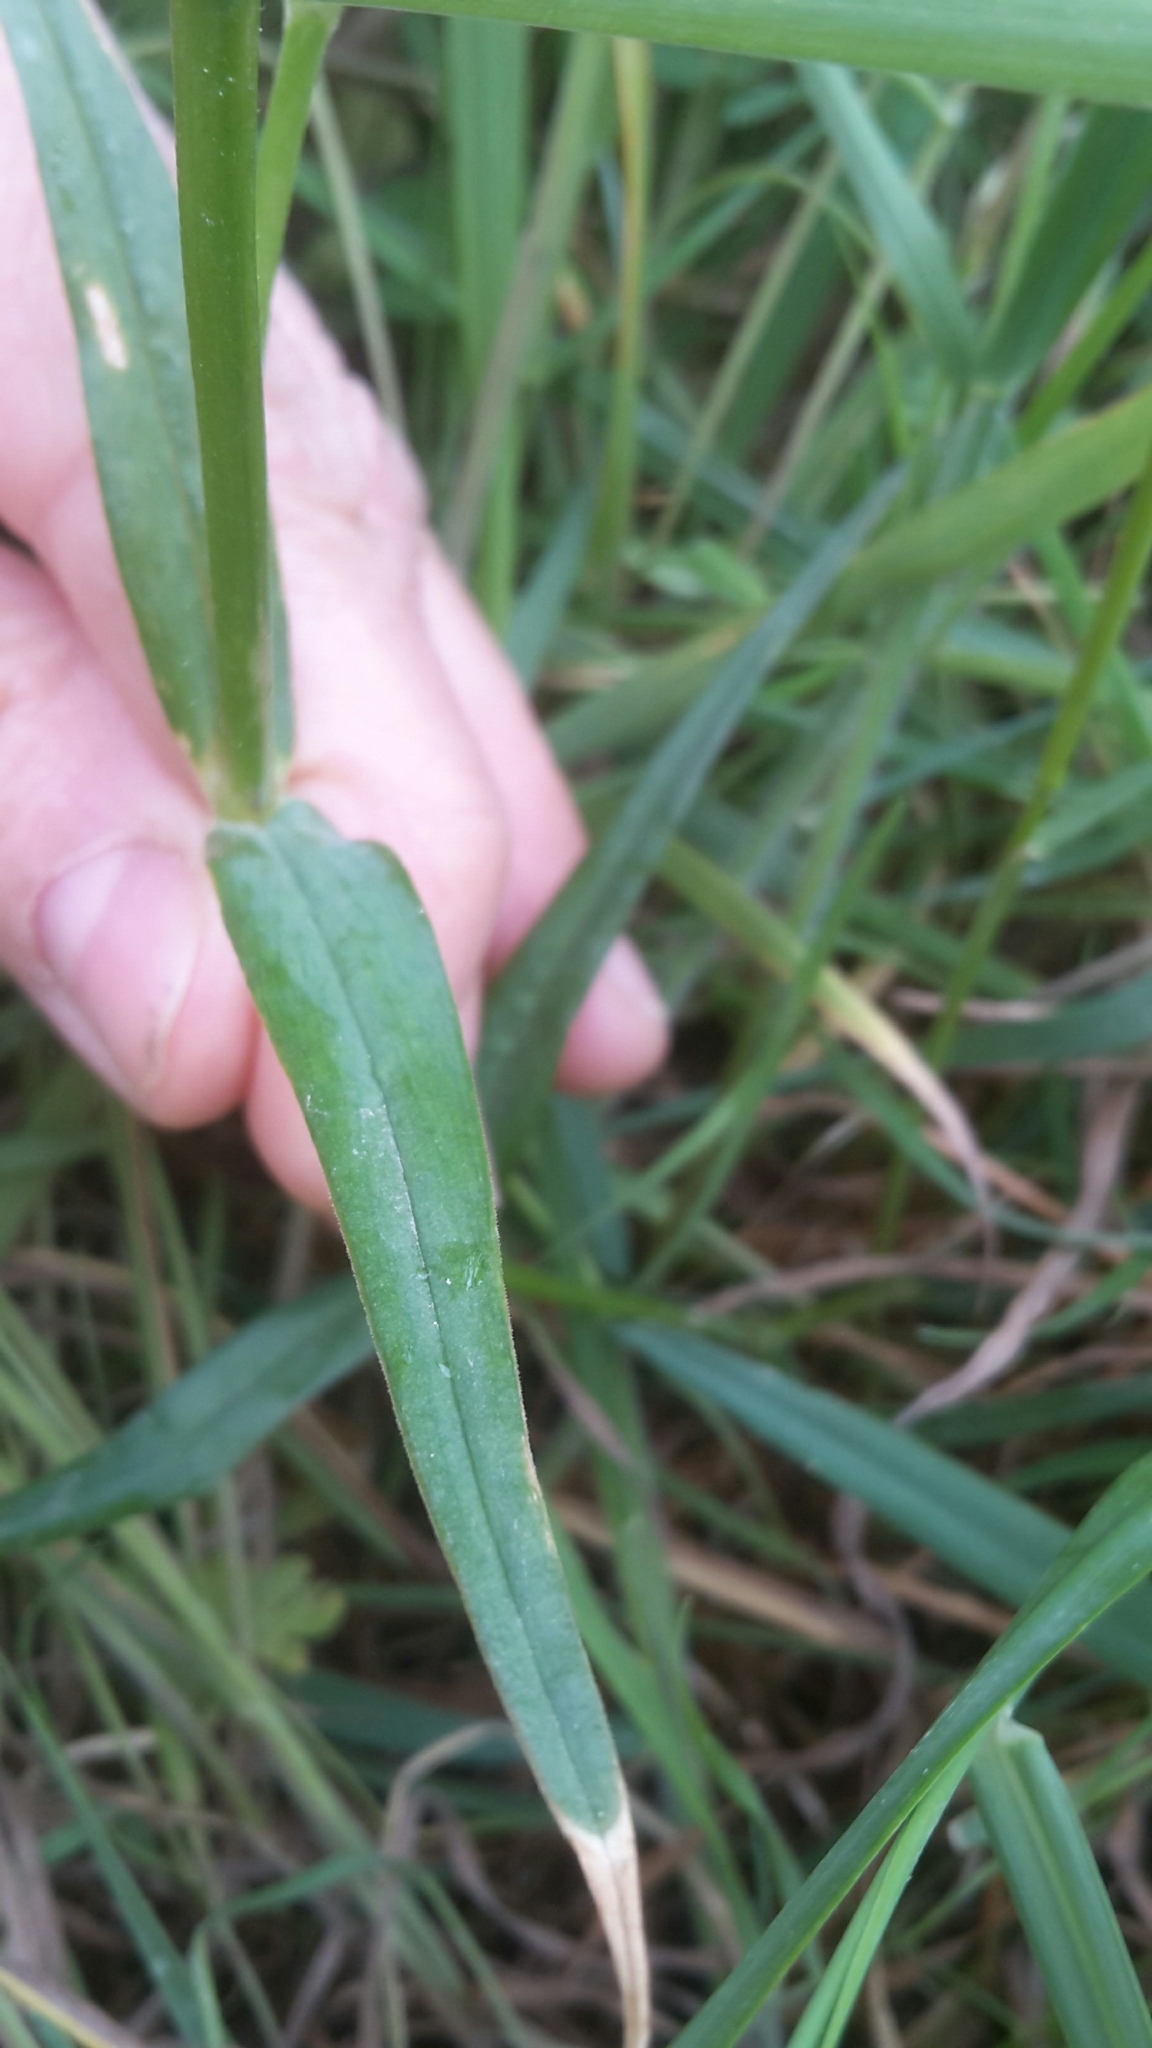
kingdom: Plantae
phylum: Tracheophyta
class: Magnoliopsida
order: Caryophyllales
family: Caryophyllaceae
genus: Rabelera
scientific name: Rabelera holostea
